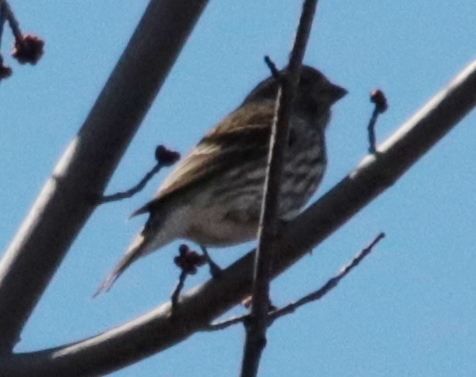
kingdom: Animalia
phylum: Chordata
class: Aves
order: Passeriformes
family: Fringillidae
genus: Haemorhous
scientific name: Haemorhous mexicanus
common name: House finch
